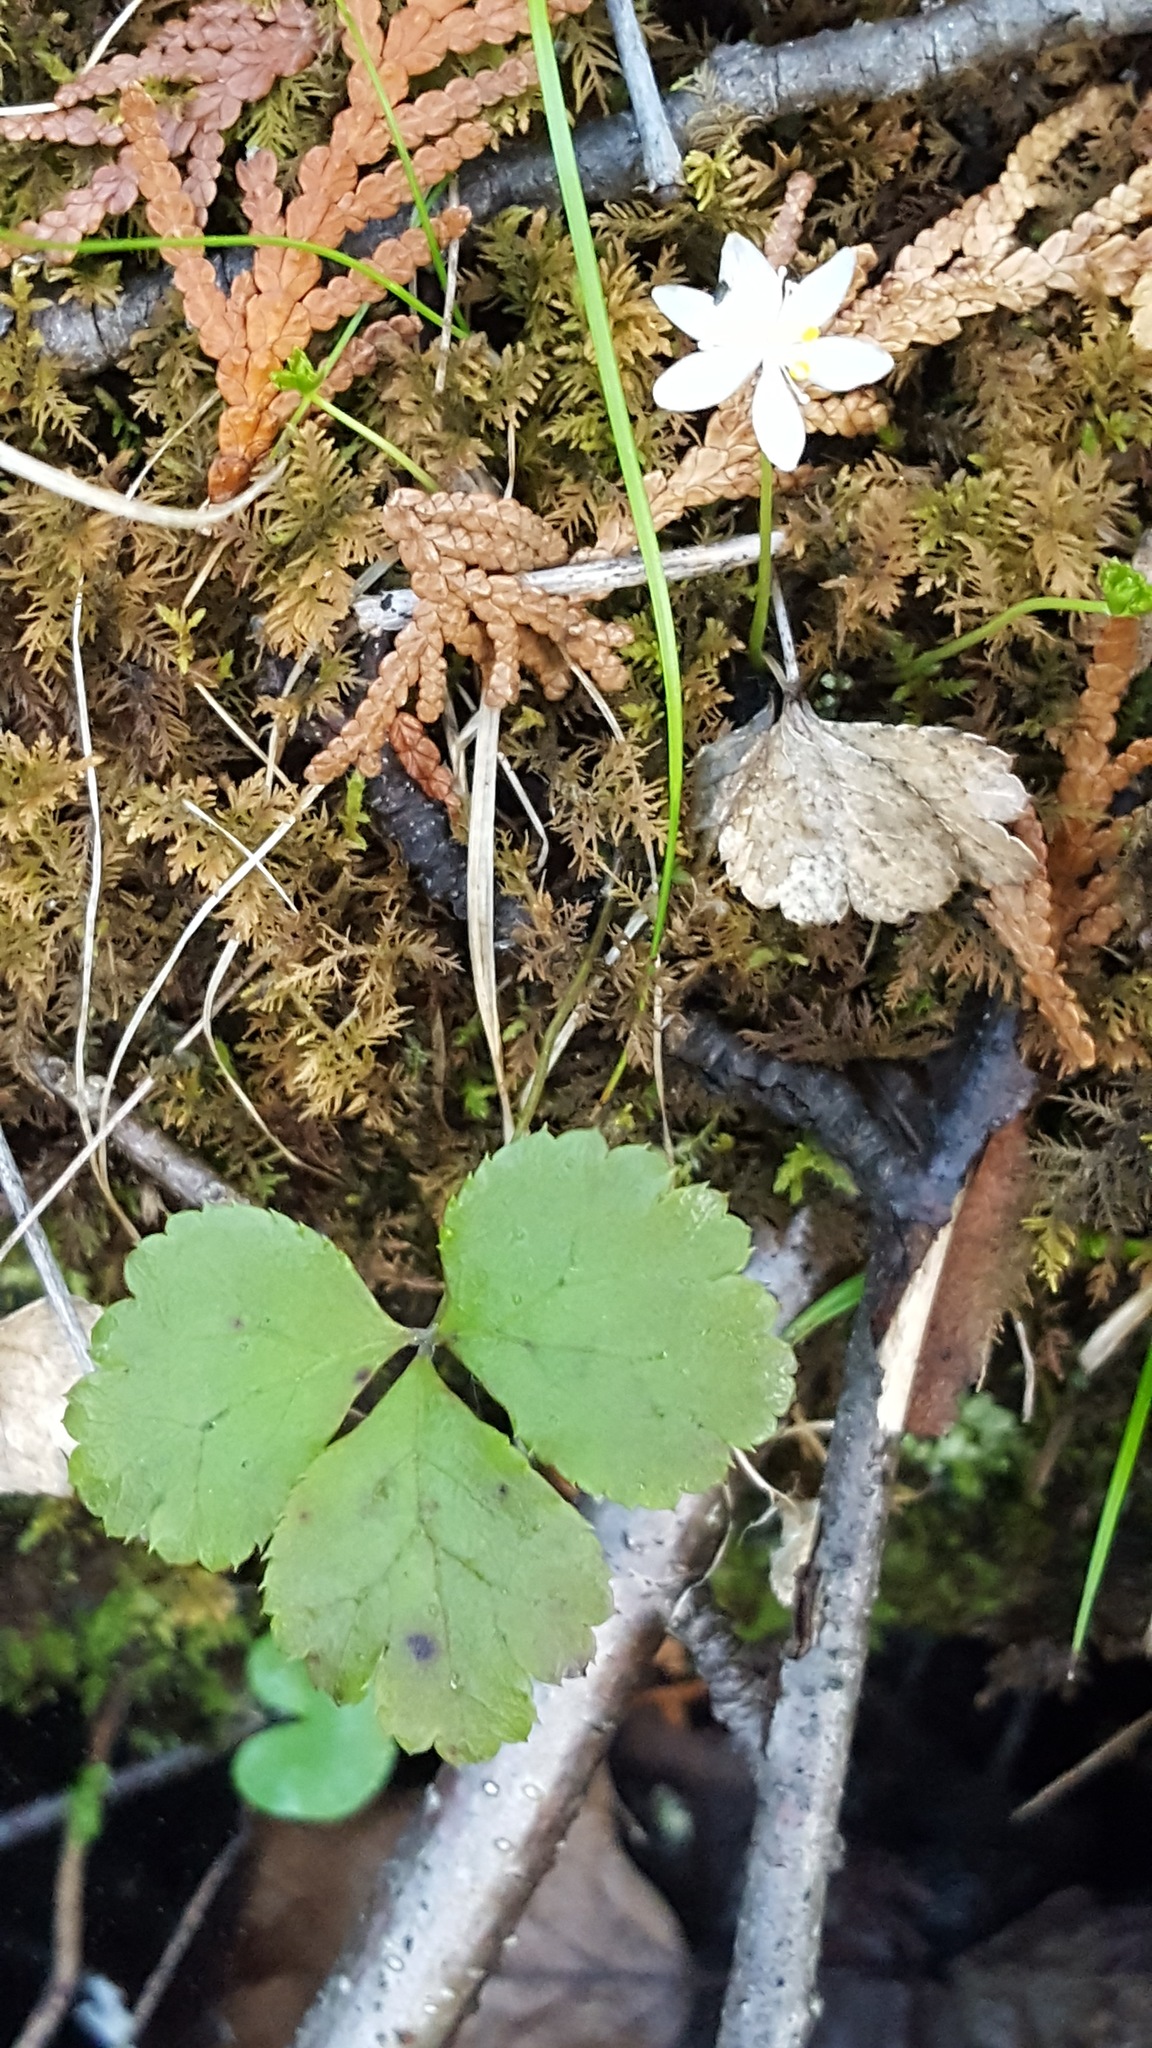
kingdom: Plantae
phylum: Tracheophyta
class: Magnoliopsida
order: Ranunculales
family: Ranunculaceae
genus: Coptis
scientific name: Coptis trifolia
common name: Canker-root
